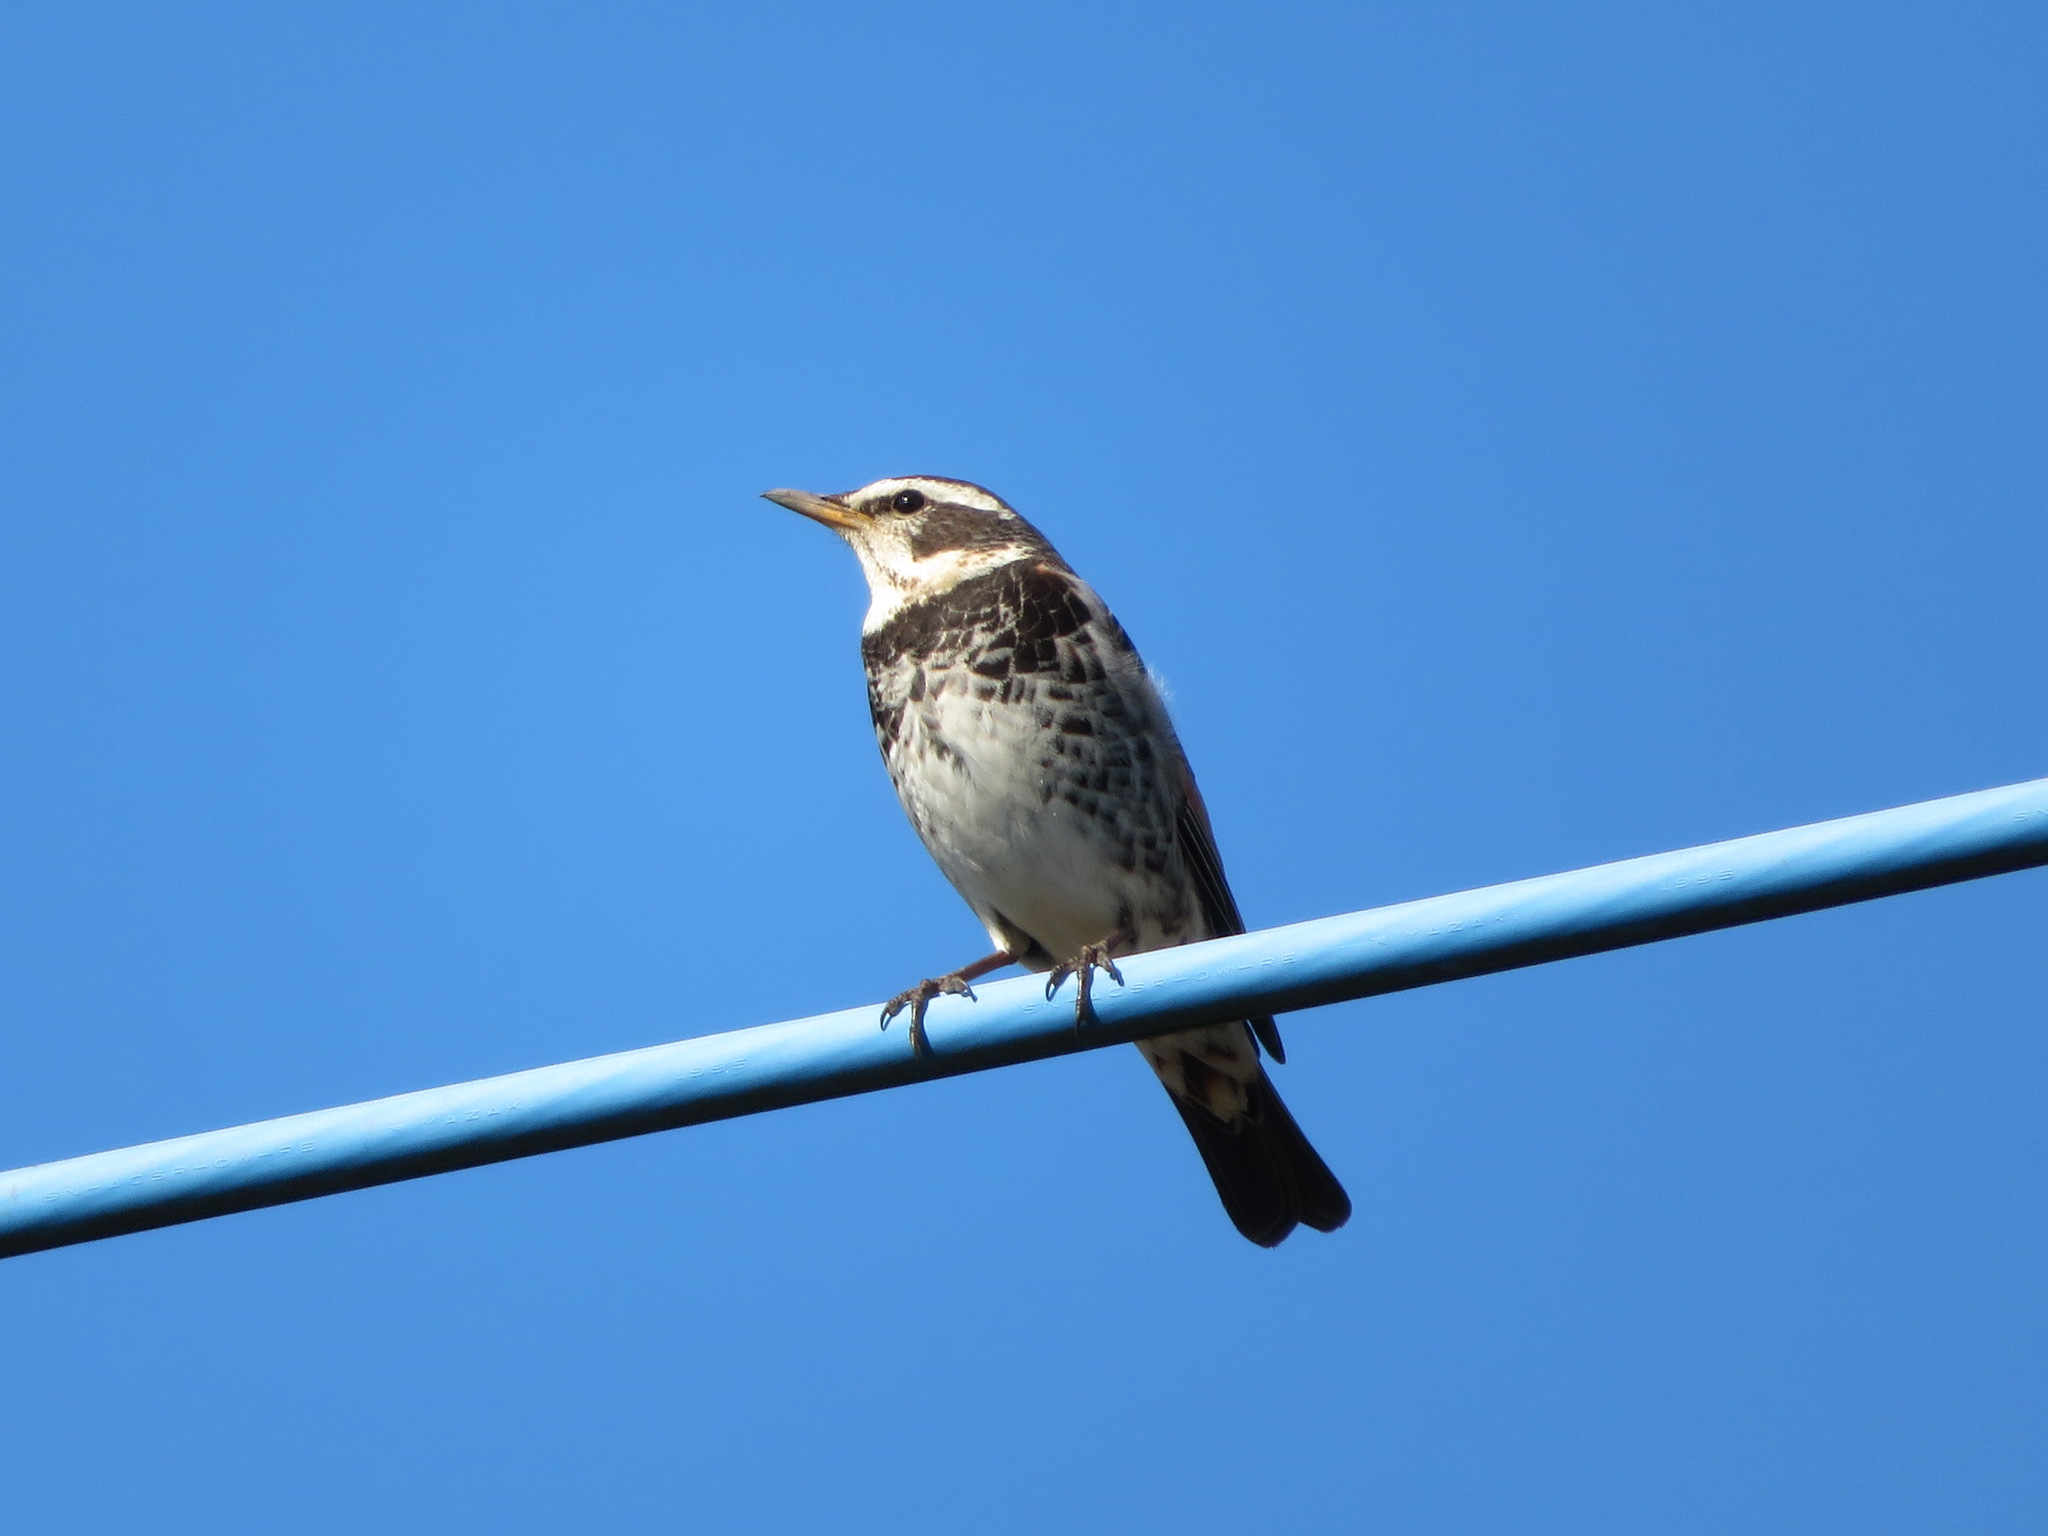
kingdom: Animalia
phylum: Chordata
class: Aves
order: Passeriformes
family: Turdidae
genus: Turdus
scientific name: Turdus eunomus
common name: Dusky thrush
